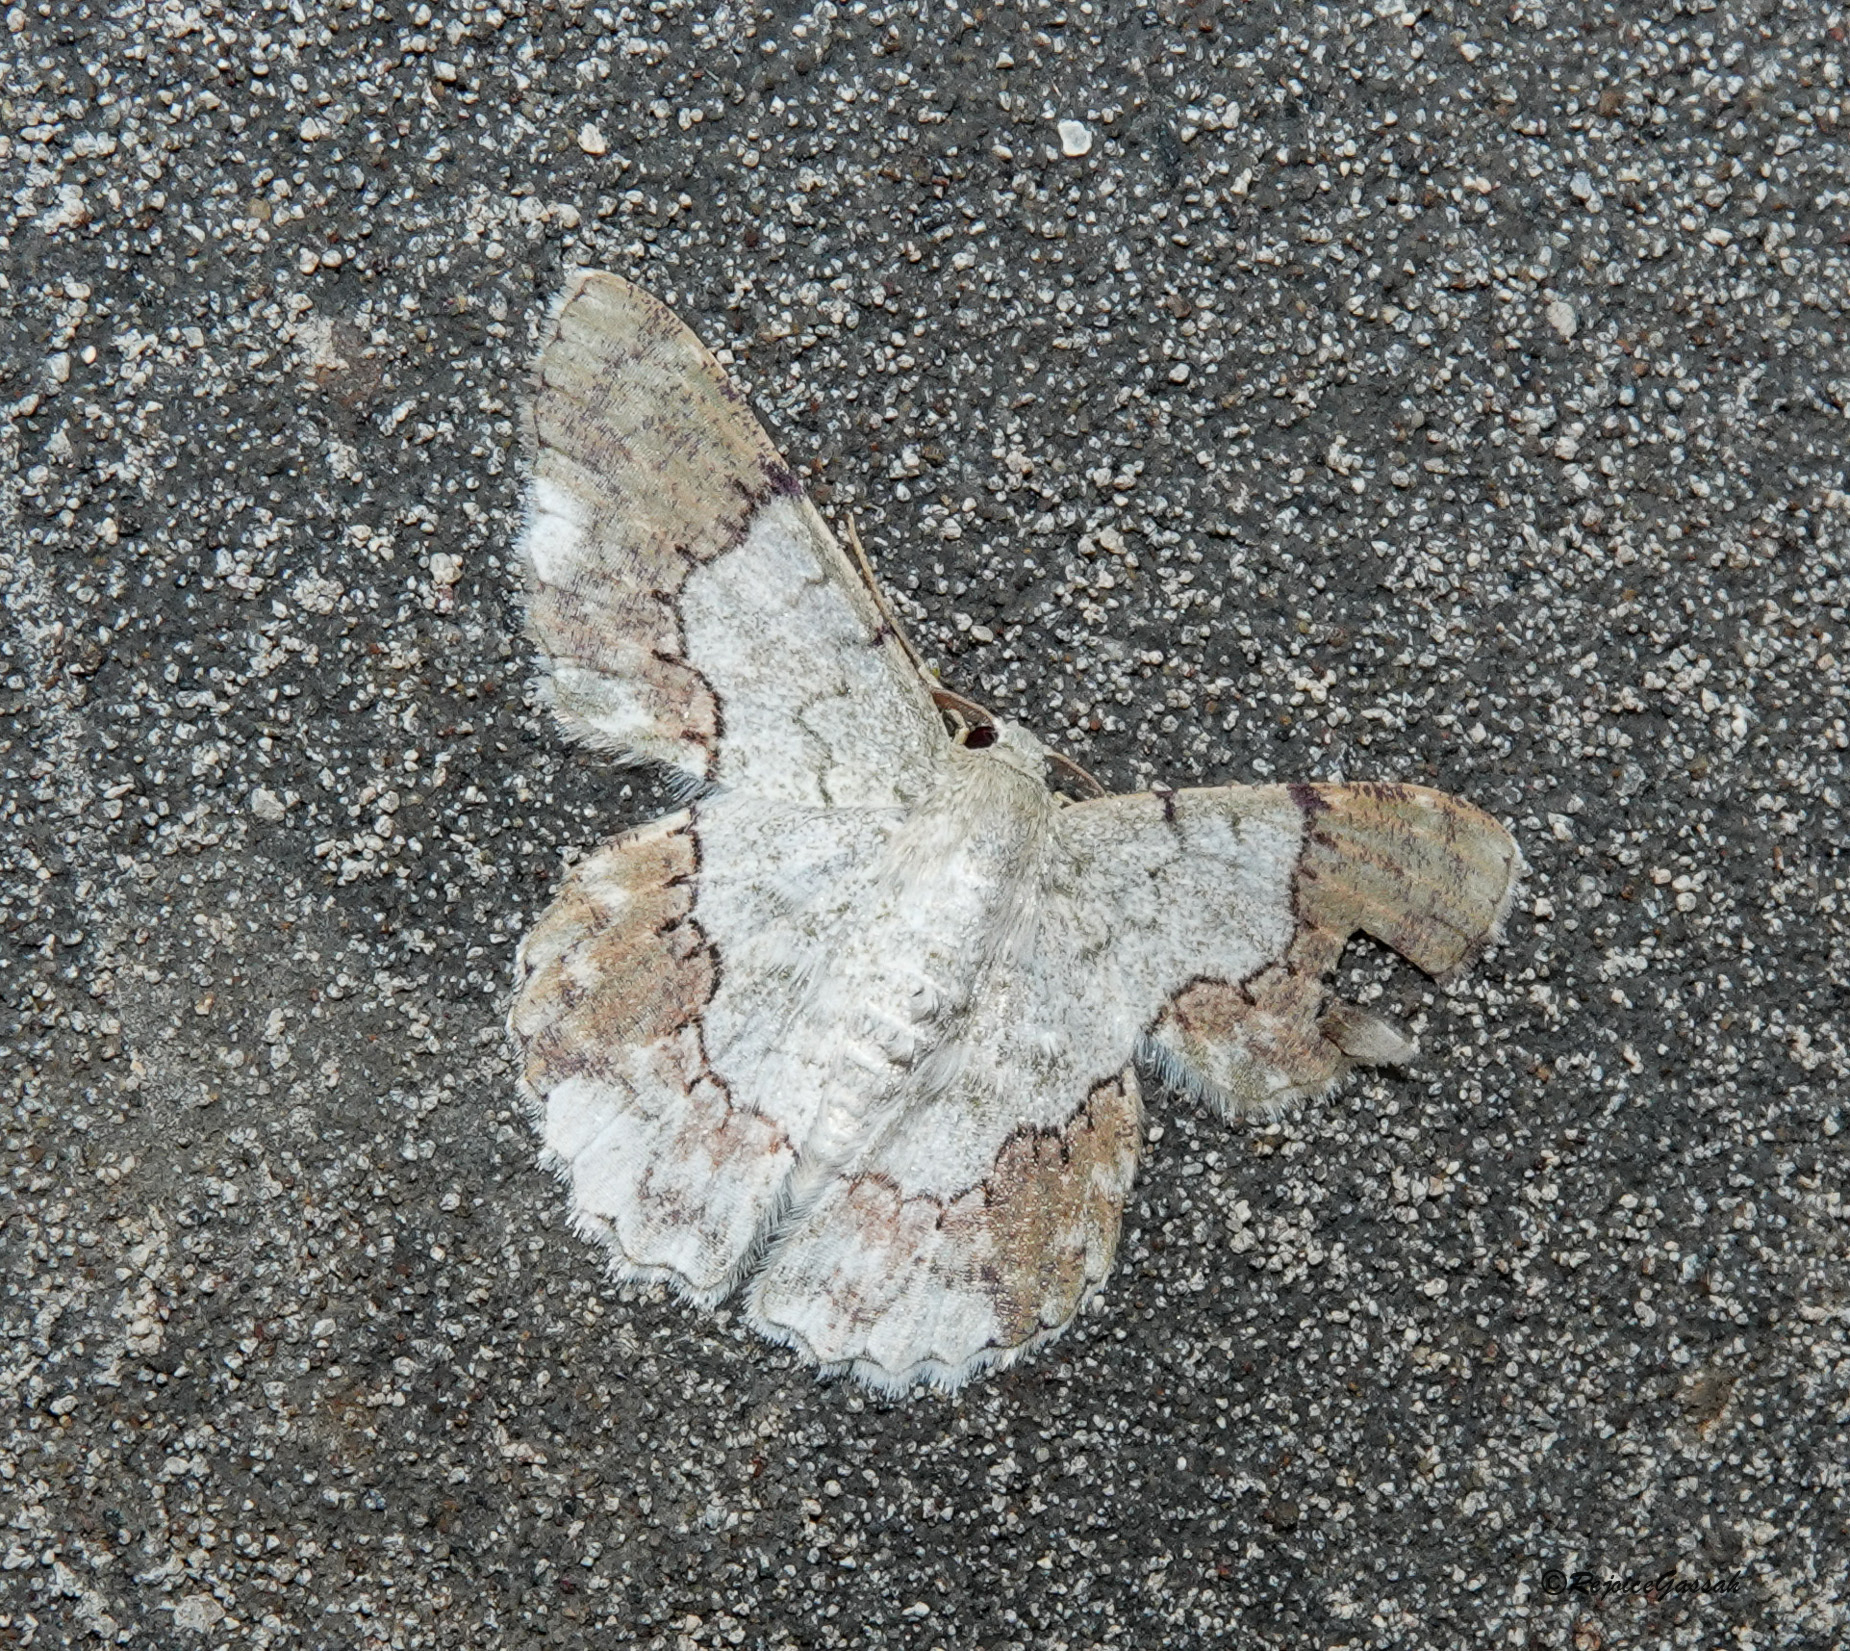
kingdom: Animalia
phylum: Arthropoda
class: Insecta
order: Lepidoptera
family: Geometridae
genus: Pingasa
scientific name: Pingasa ruginaria
